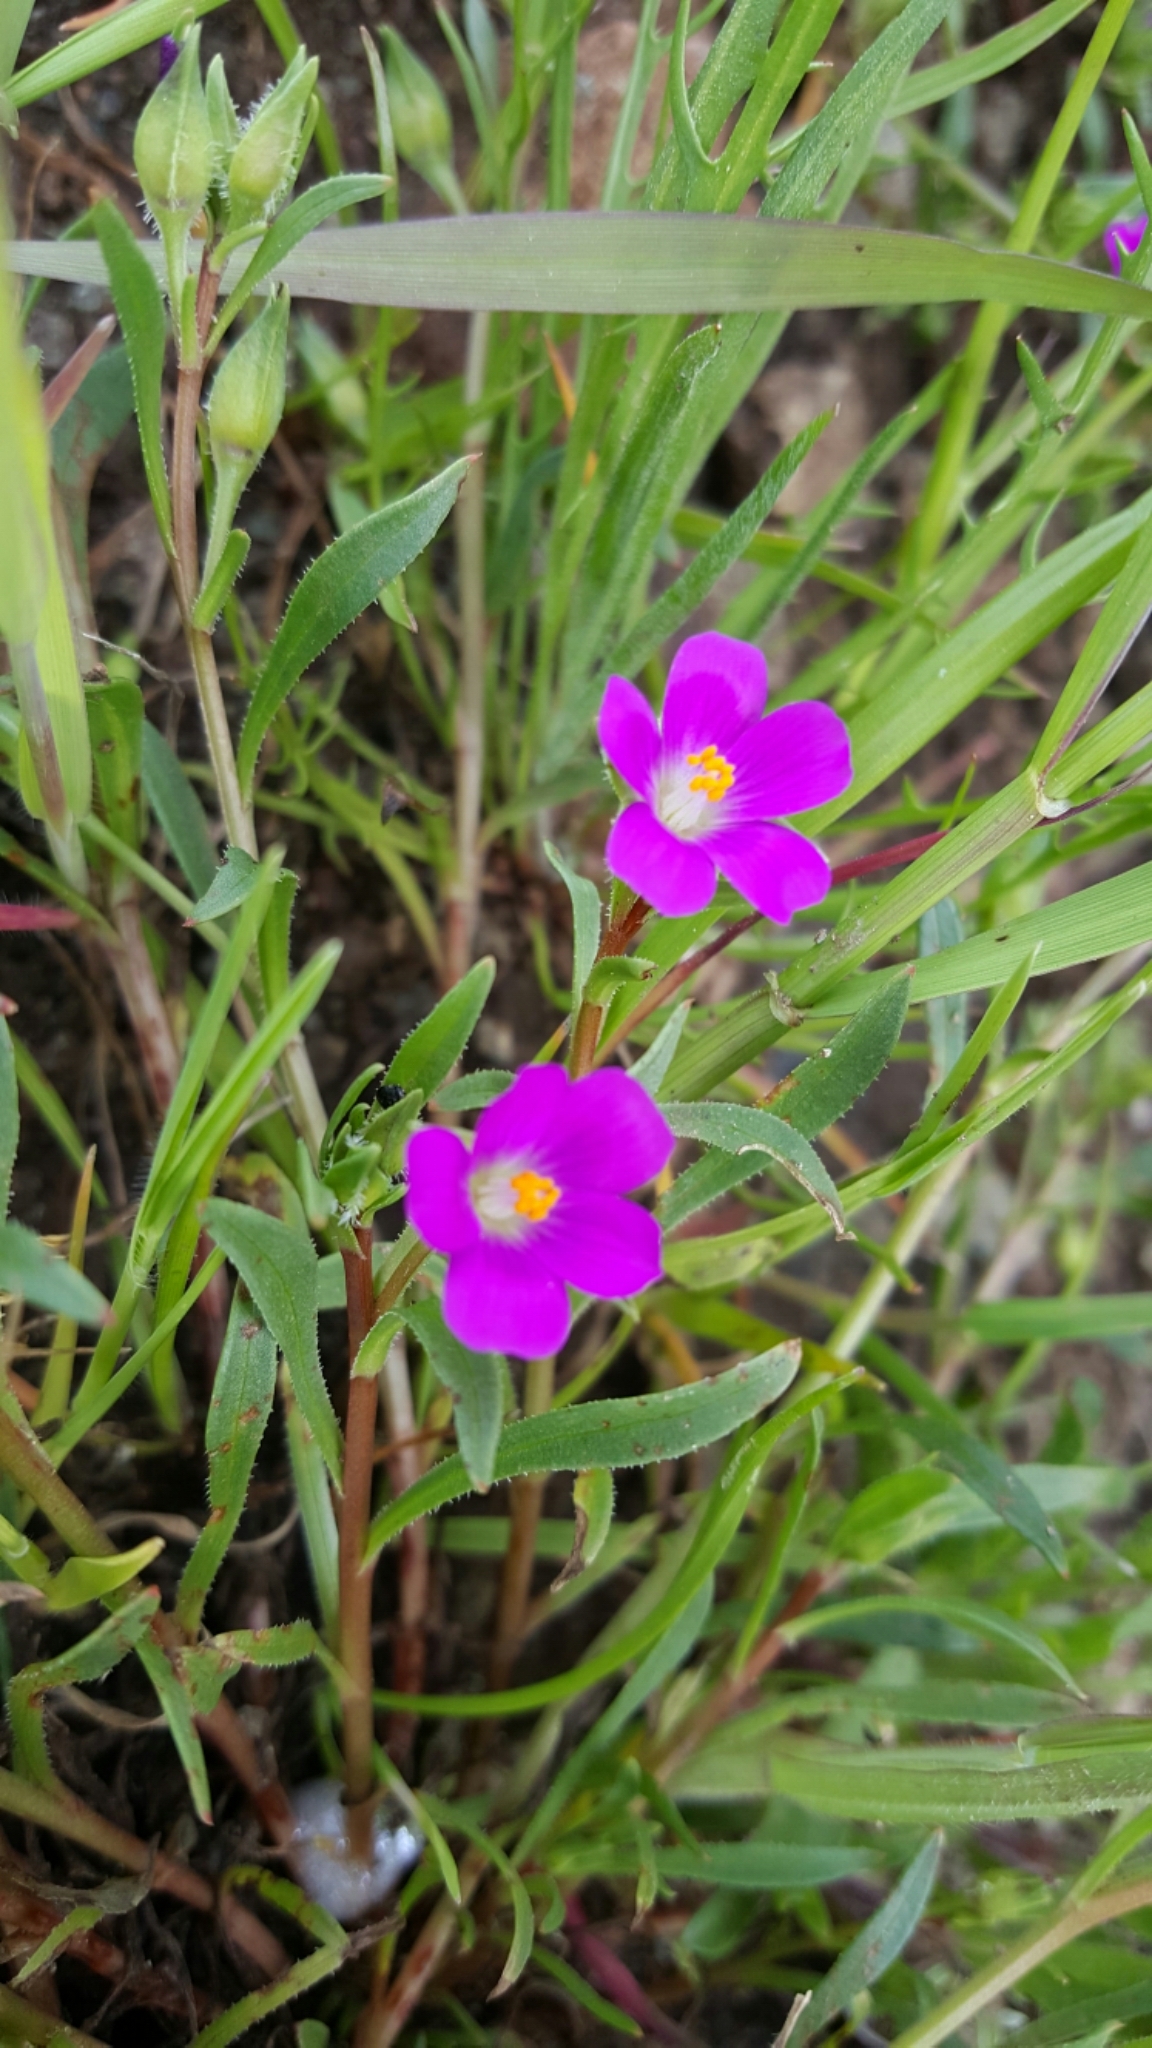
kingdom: Plantae
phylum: Tracheophyta
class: Magnoliopsida
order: Caryophyllales
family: Montiaceae
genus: Calandrinia
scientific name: Calandrinia menziesii
